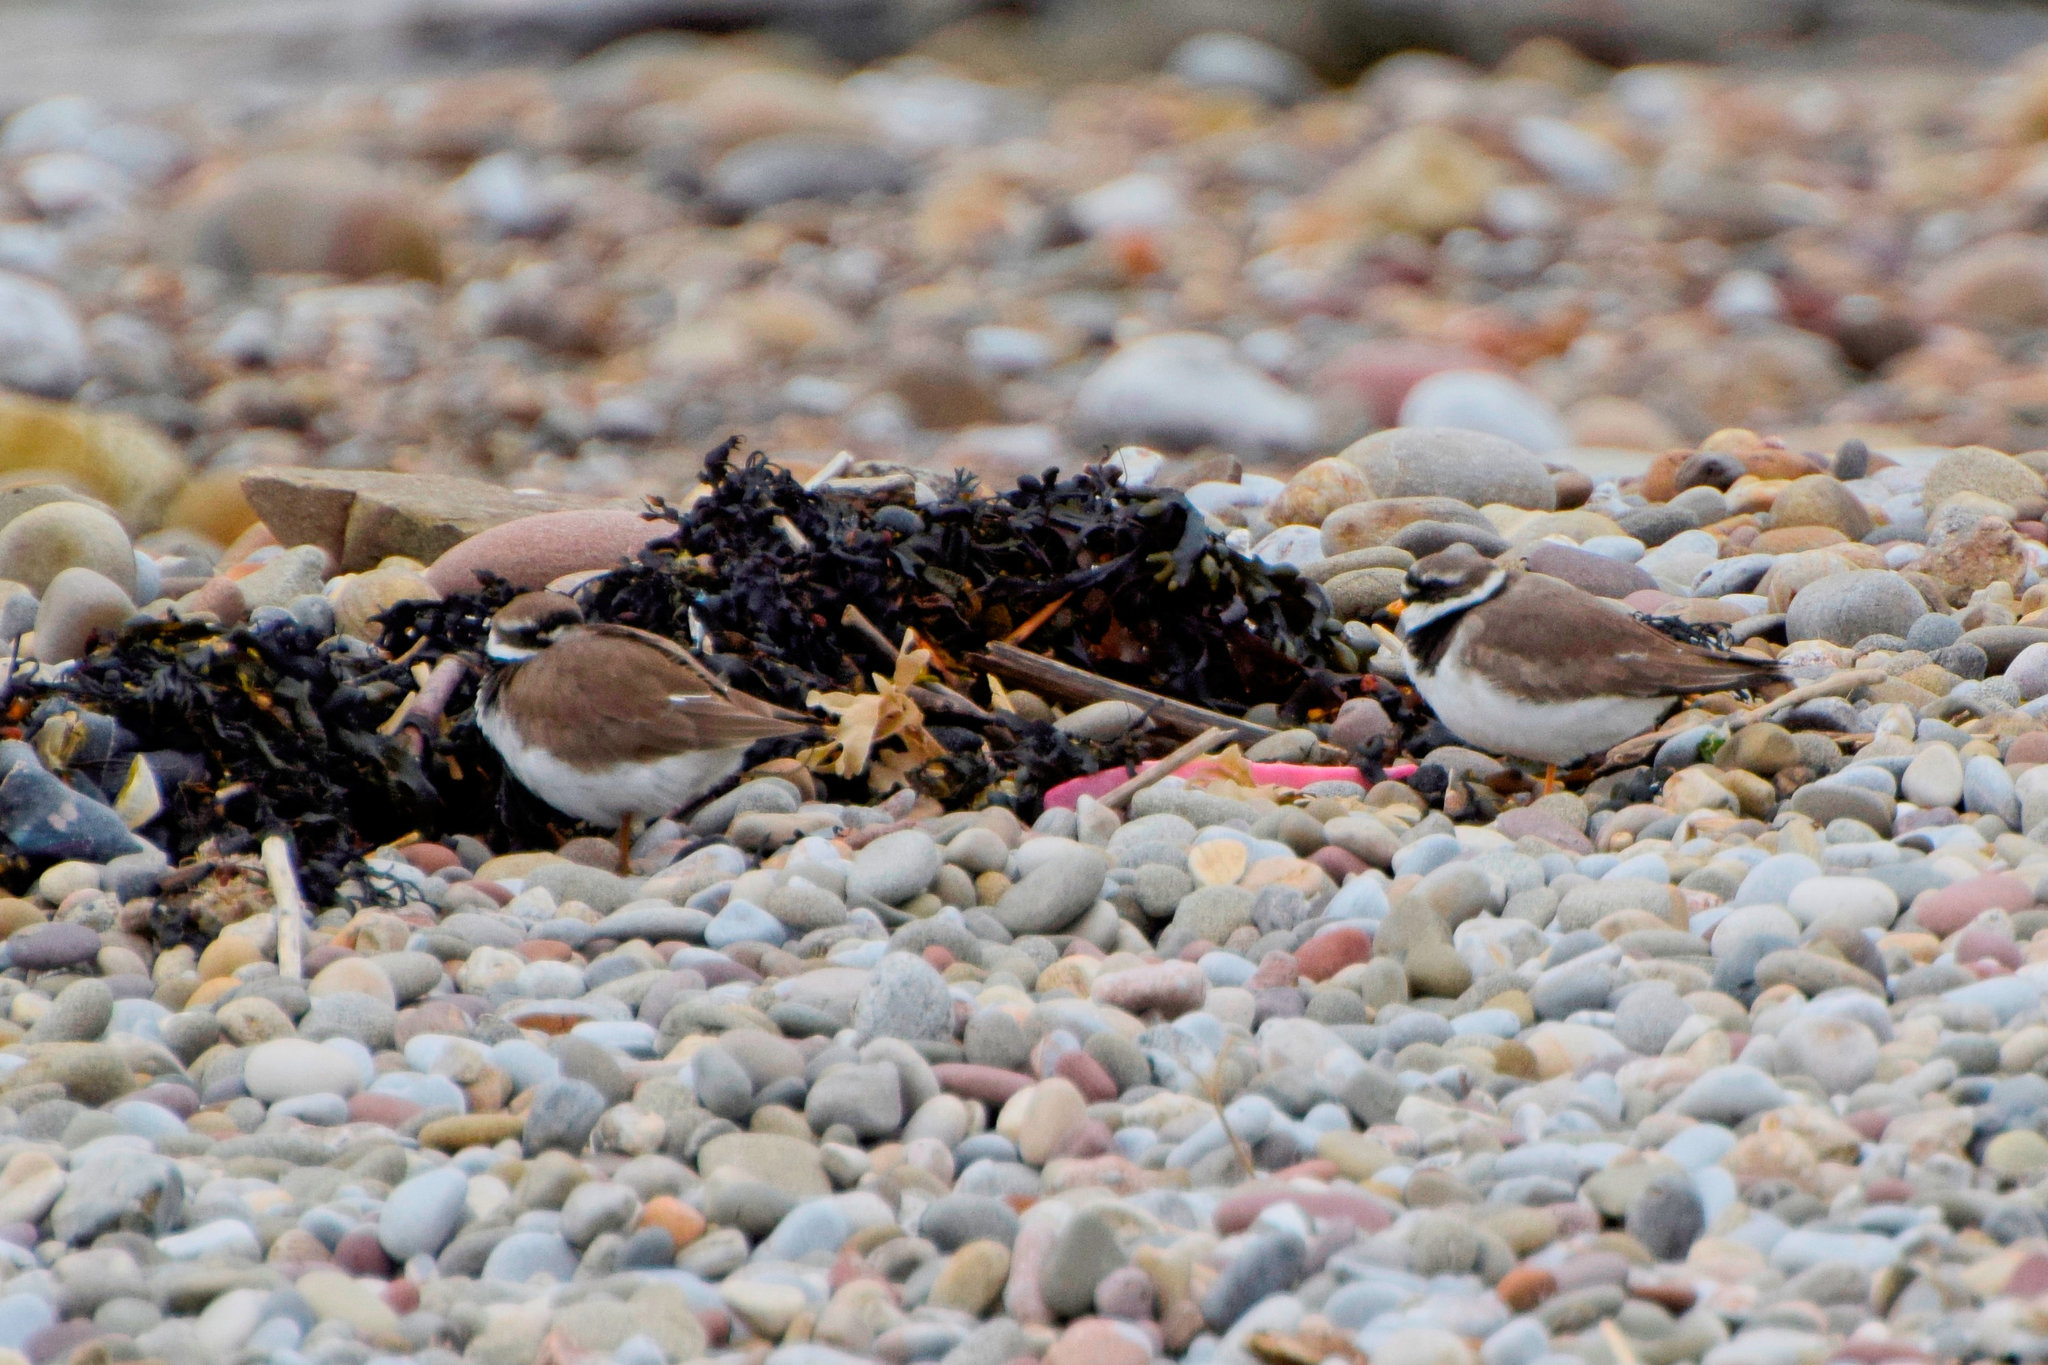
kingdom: Animalia
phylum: Chordata
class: Aves
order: Charadriiformes
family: Charadriidae
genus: Charadrius
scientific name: Charadrius hiaticula
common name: Common ringed plover
